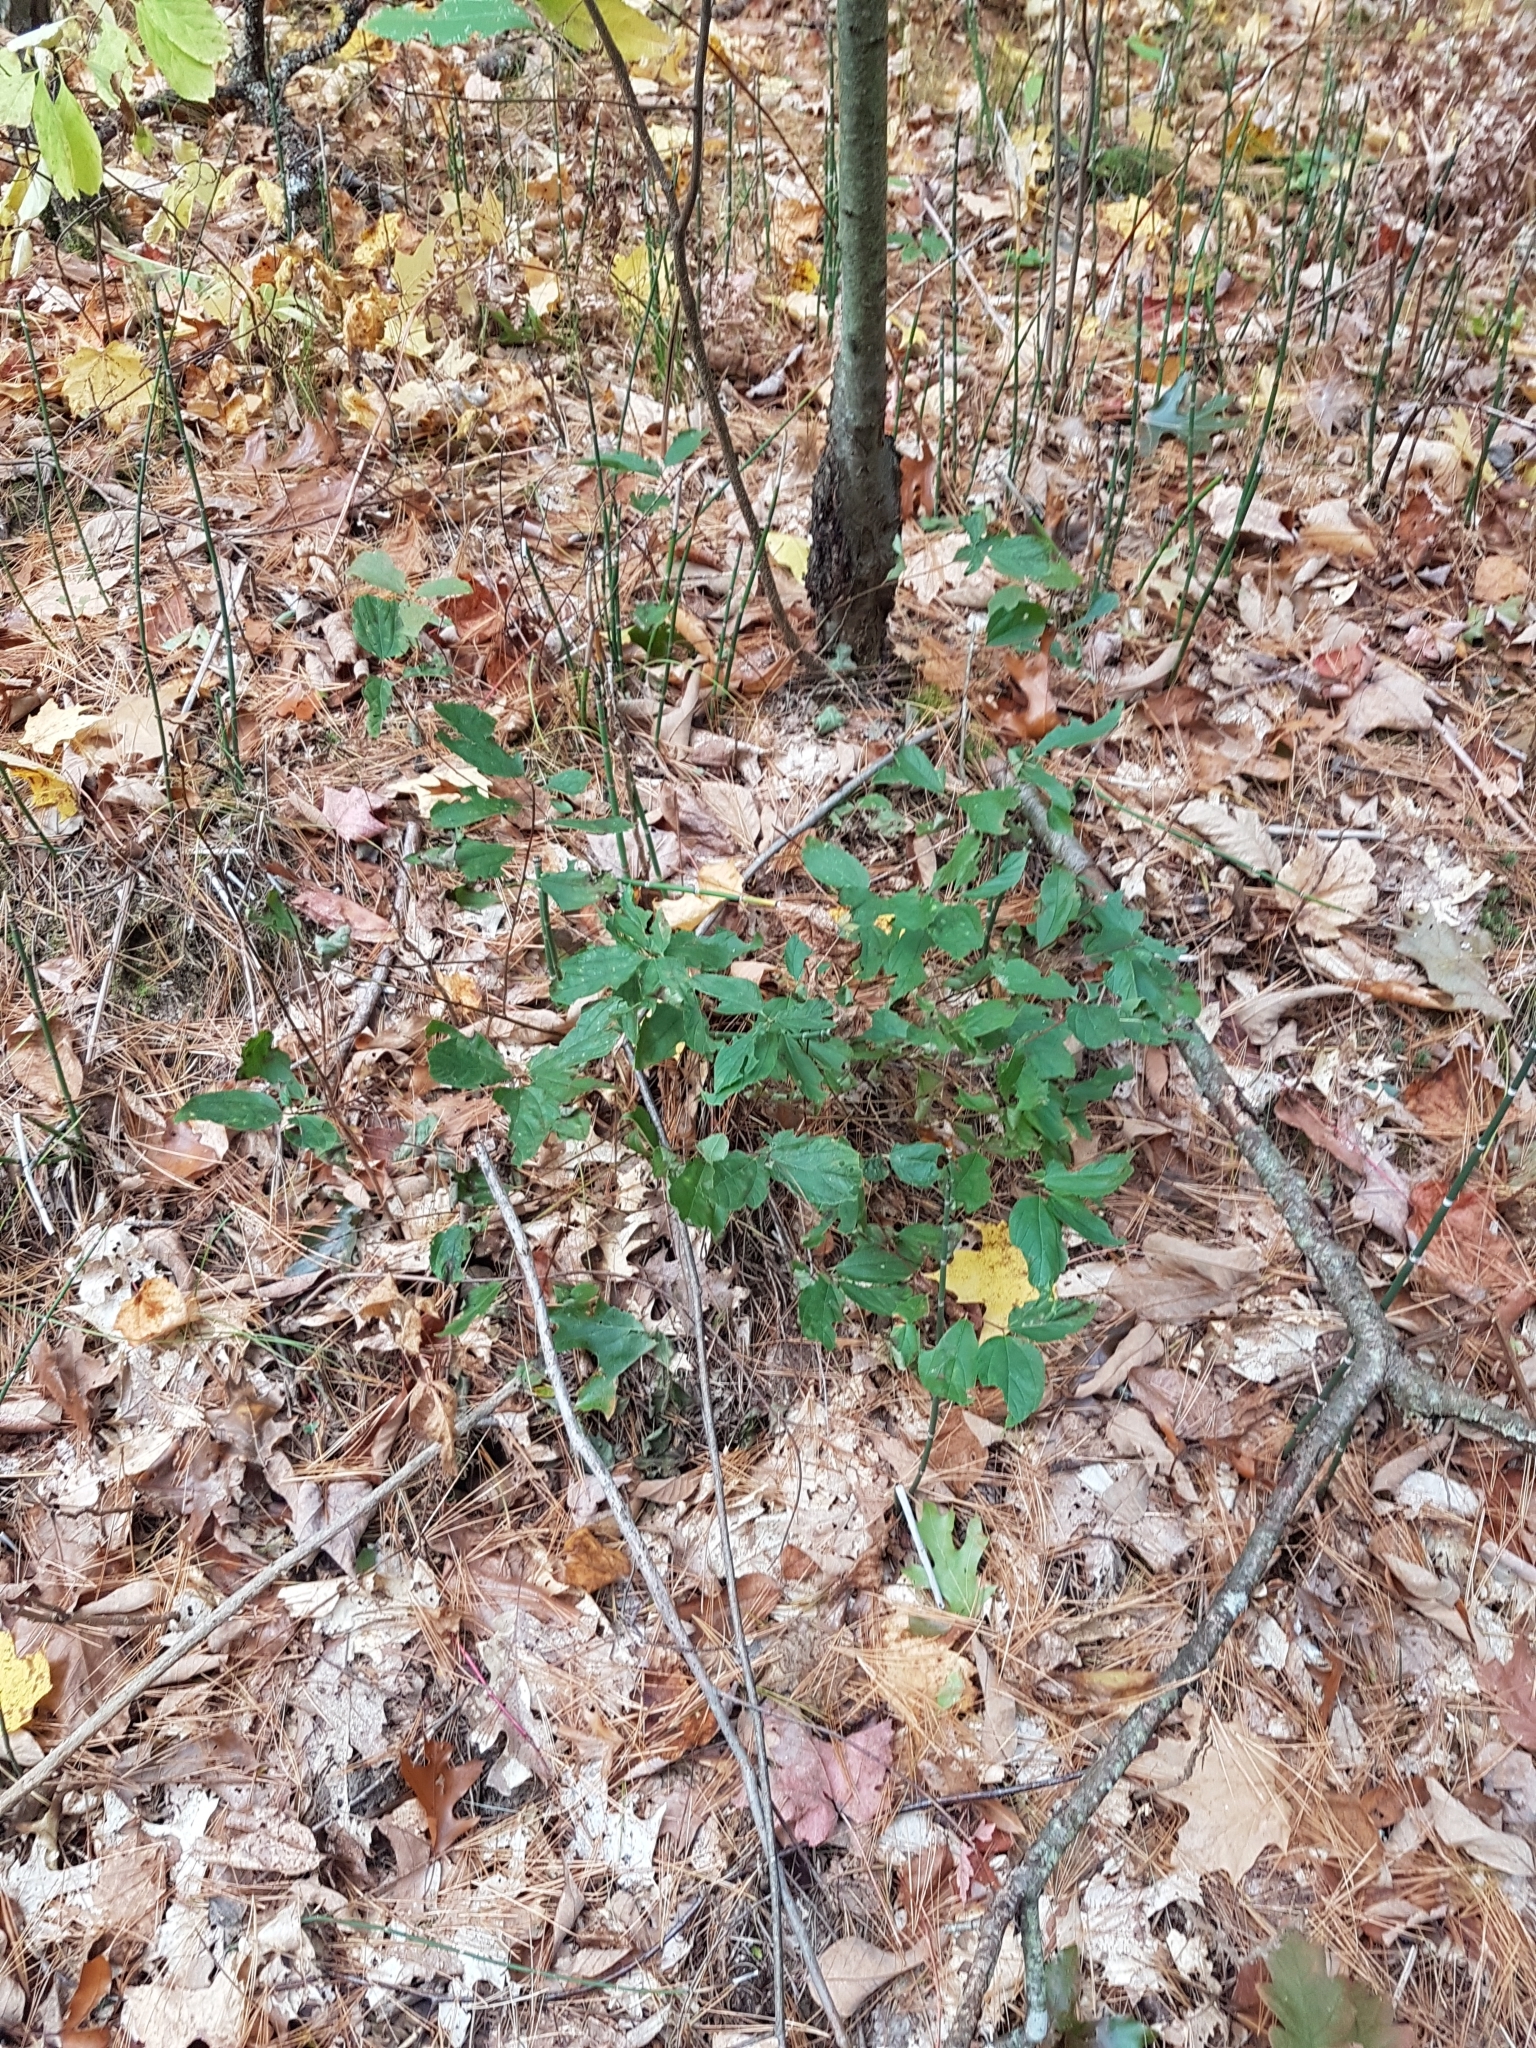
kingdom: Plantae
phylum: Tracheophyta
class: Magnoliopsida
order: Rosales
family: Rhamnaceae
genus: Ceanothus
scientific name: Ceanothus americanus
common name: Redroot
